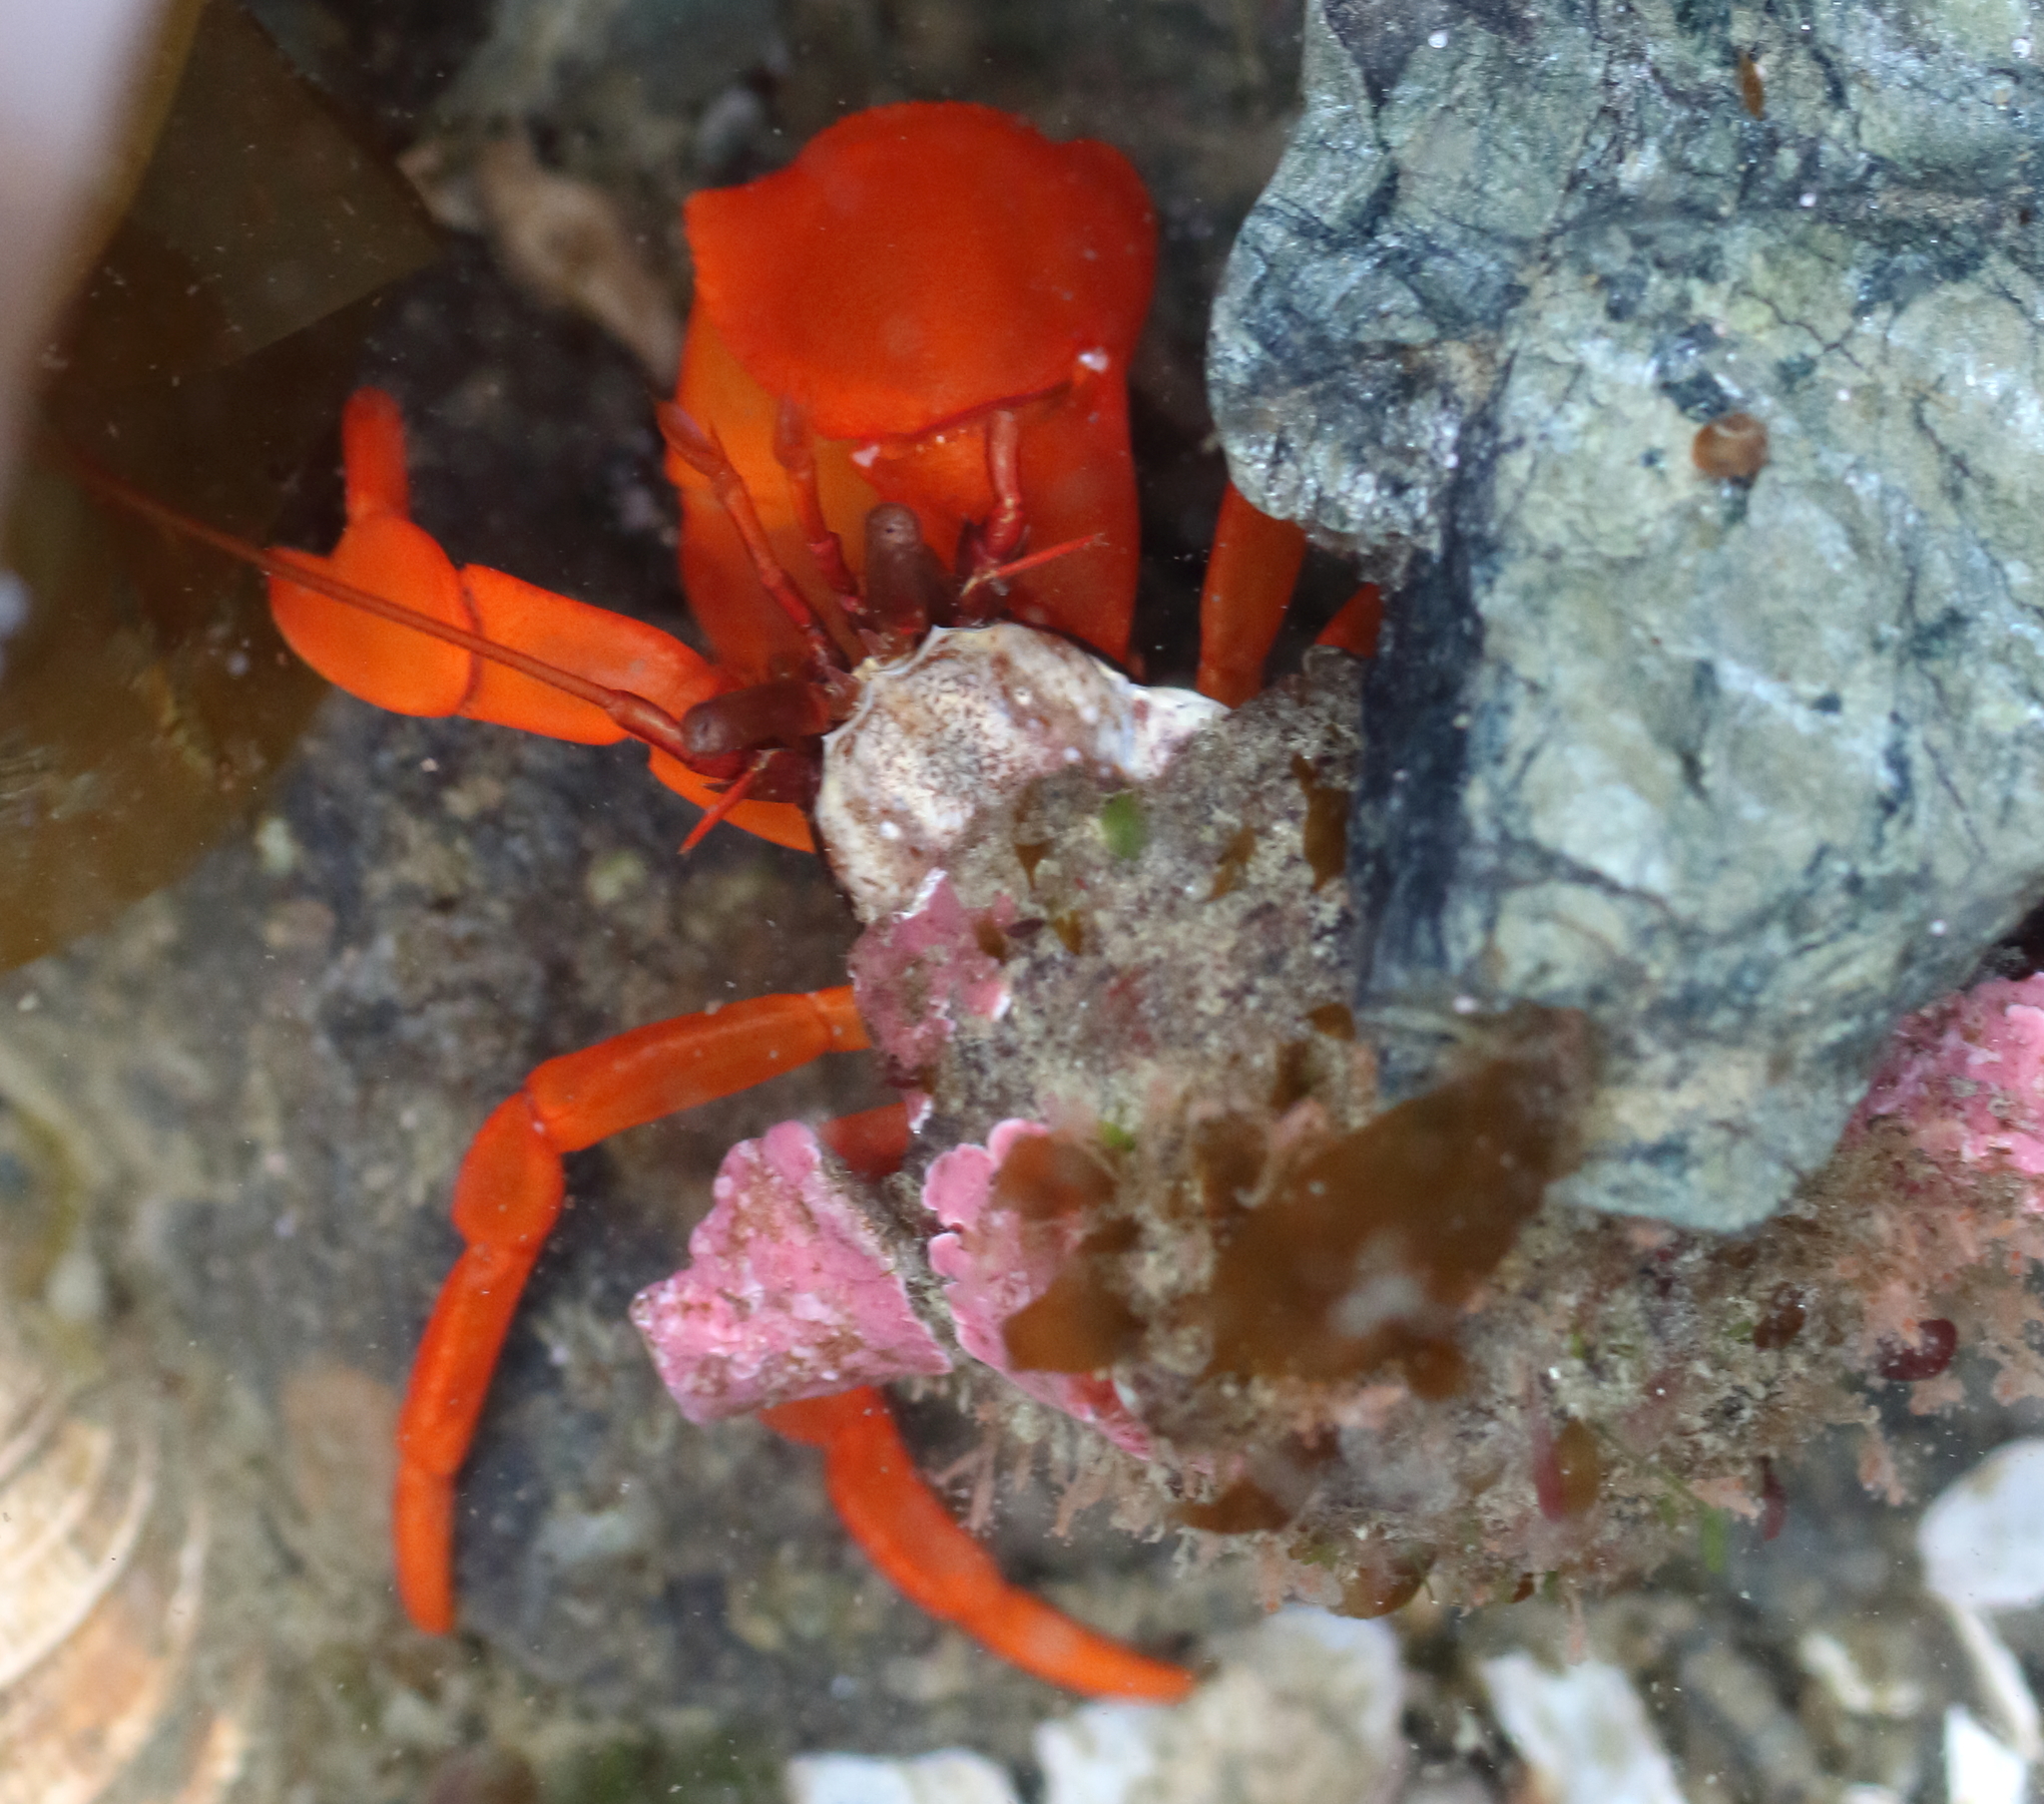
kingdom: Animalia
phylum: Arthropoda
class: Malacostraca
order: Decapoda
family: Paguridae
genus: Elassochirus
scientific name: Elassochirus gilli
